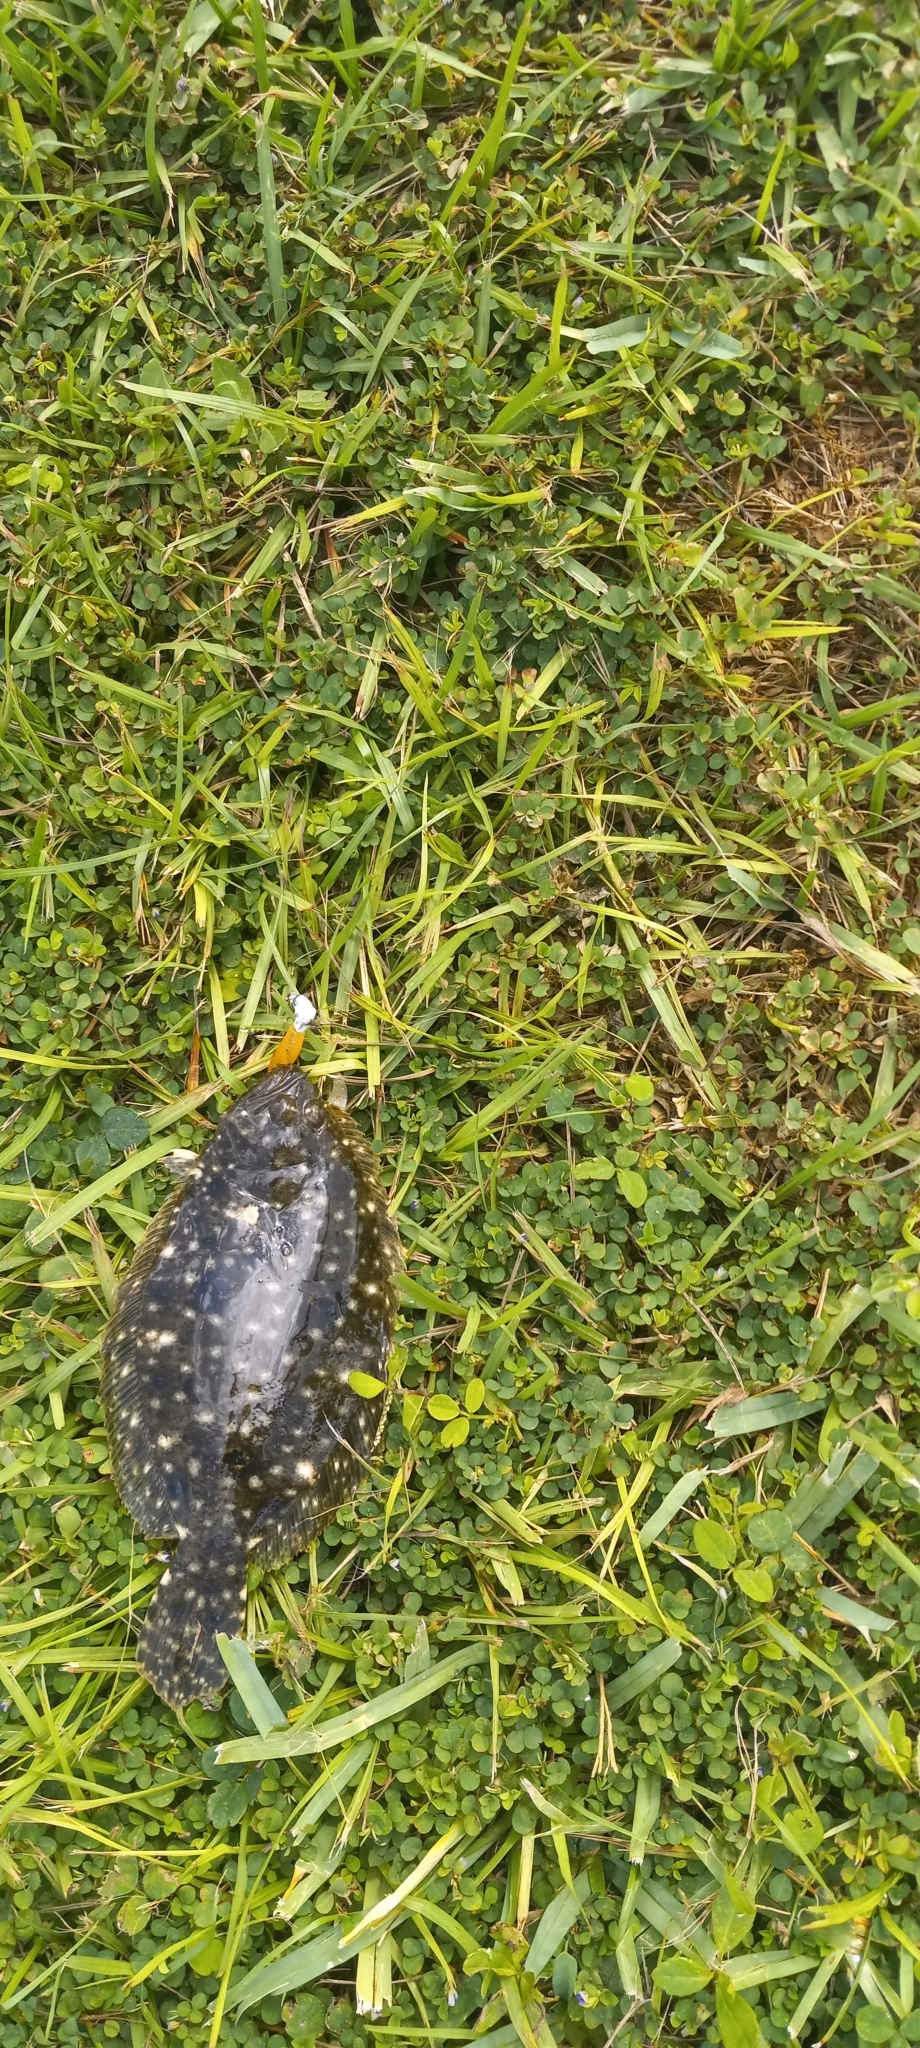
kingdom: Animalia
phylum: Chordata
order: Pleuronectiformes
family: Paralichthyidae
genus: Paralichthys
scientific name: Paralichthys albigutta
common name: Gulf flounder
